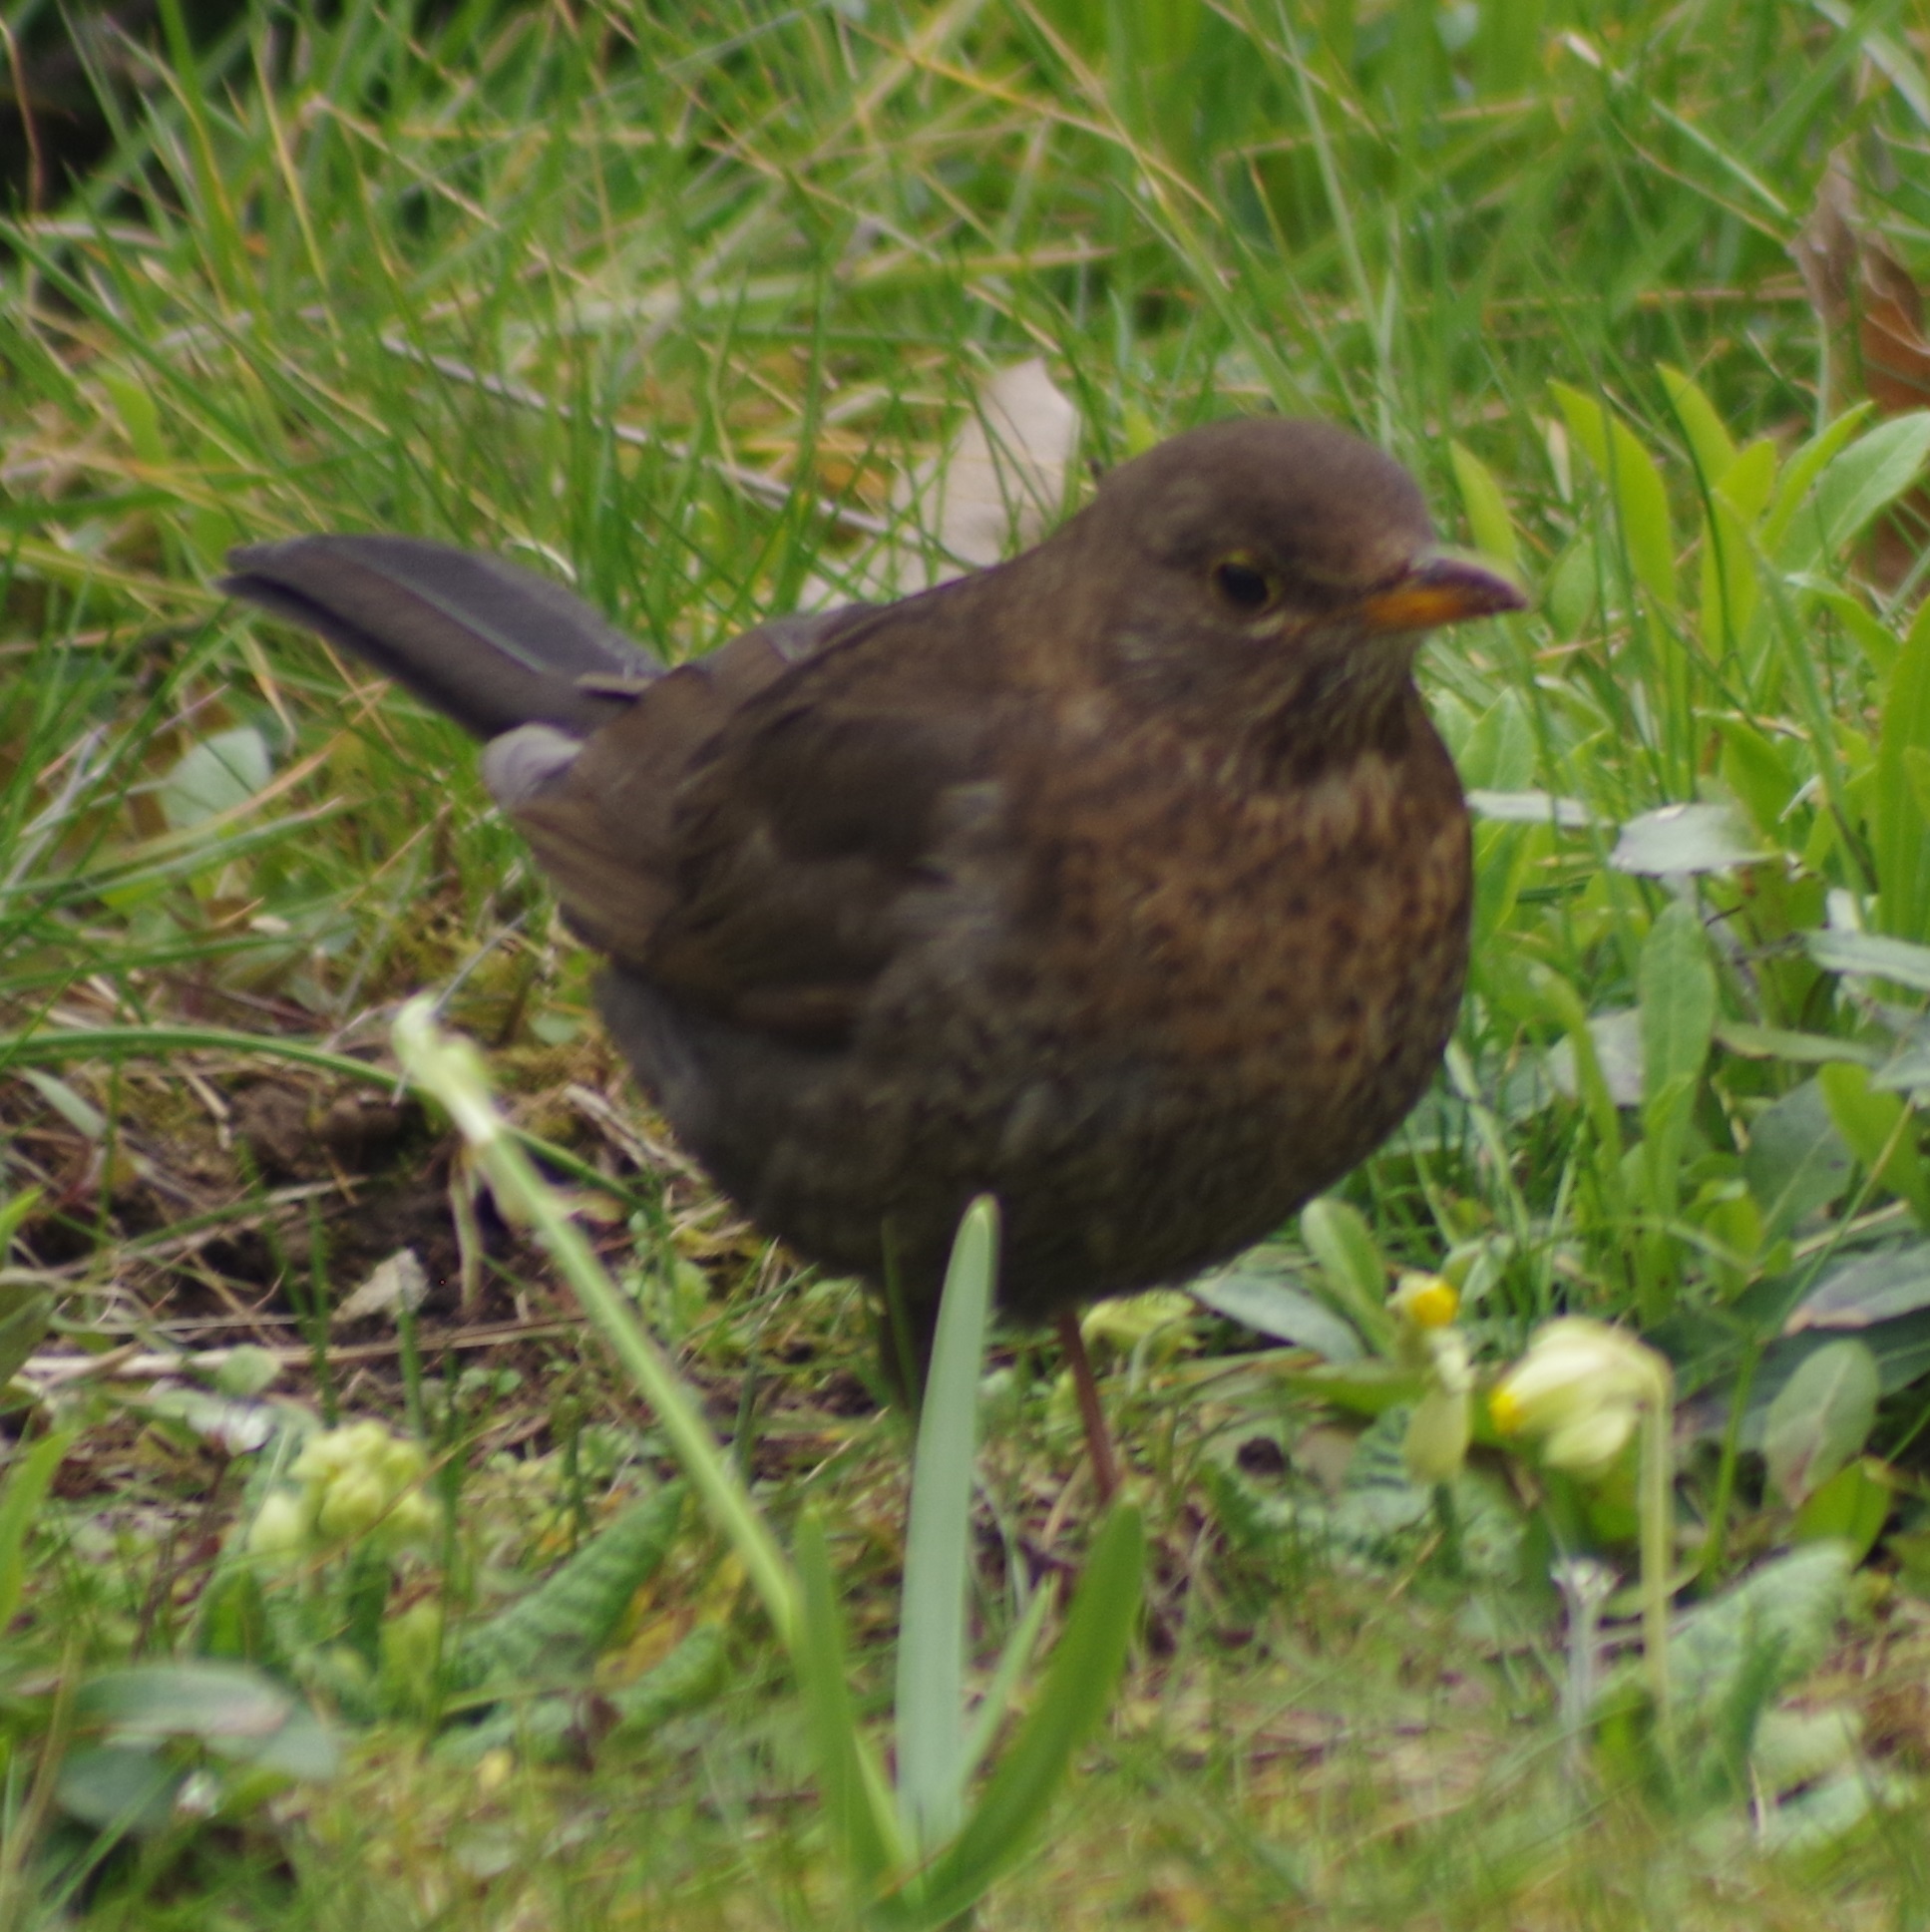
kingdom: Animalia
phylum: Chordata
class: Aves
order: Passeriformes
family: Turdidae
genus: Turdus
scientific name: Turdus merula
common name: Common blackbird
